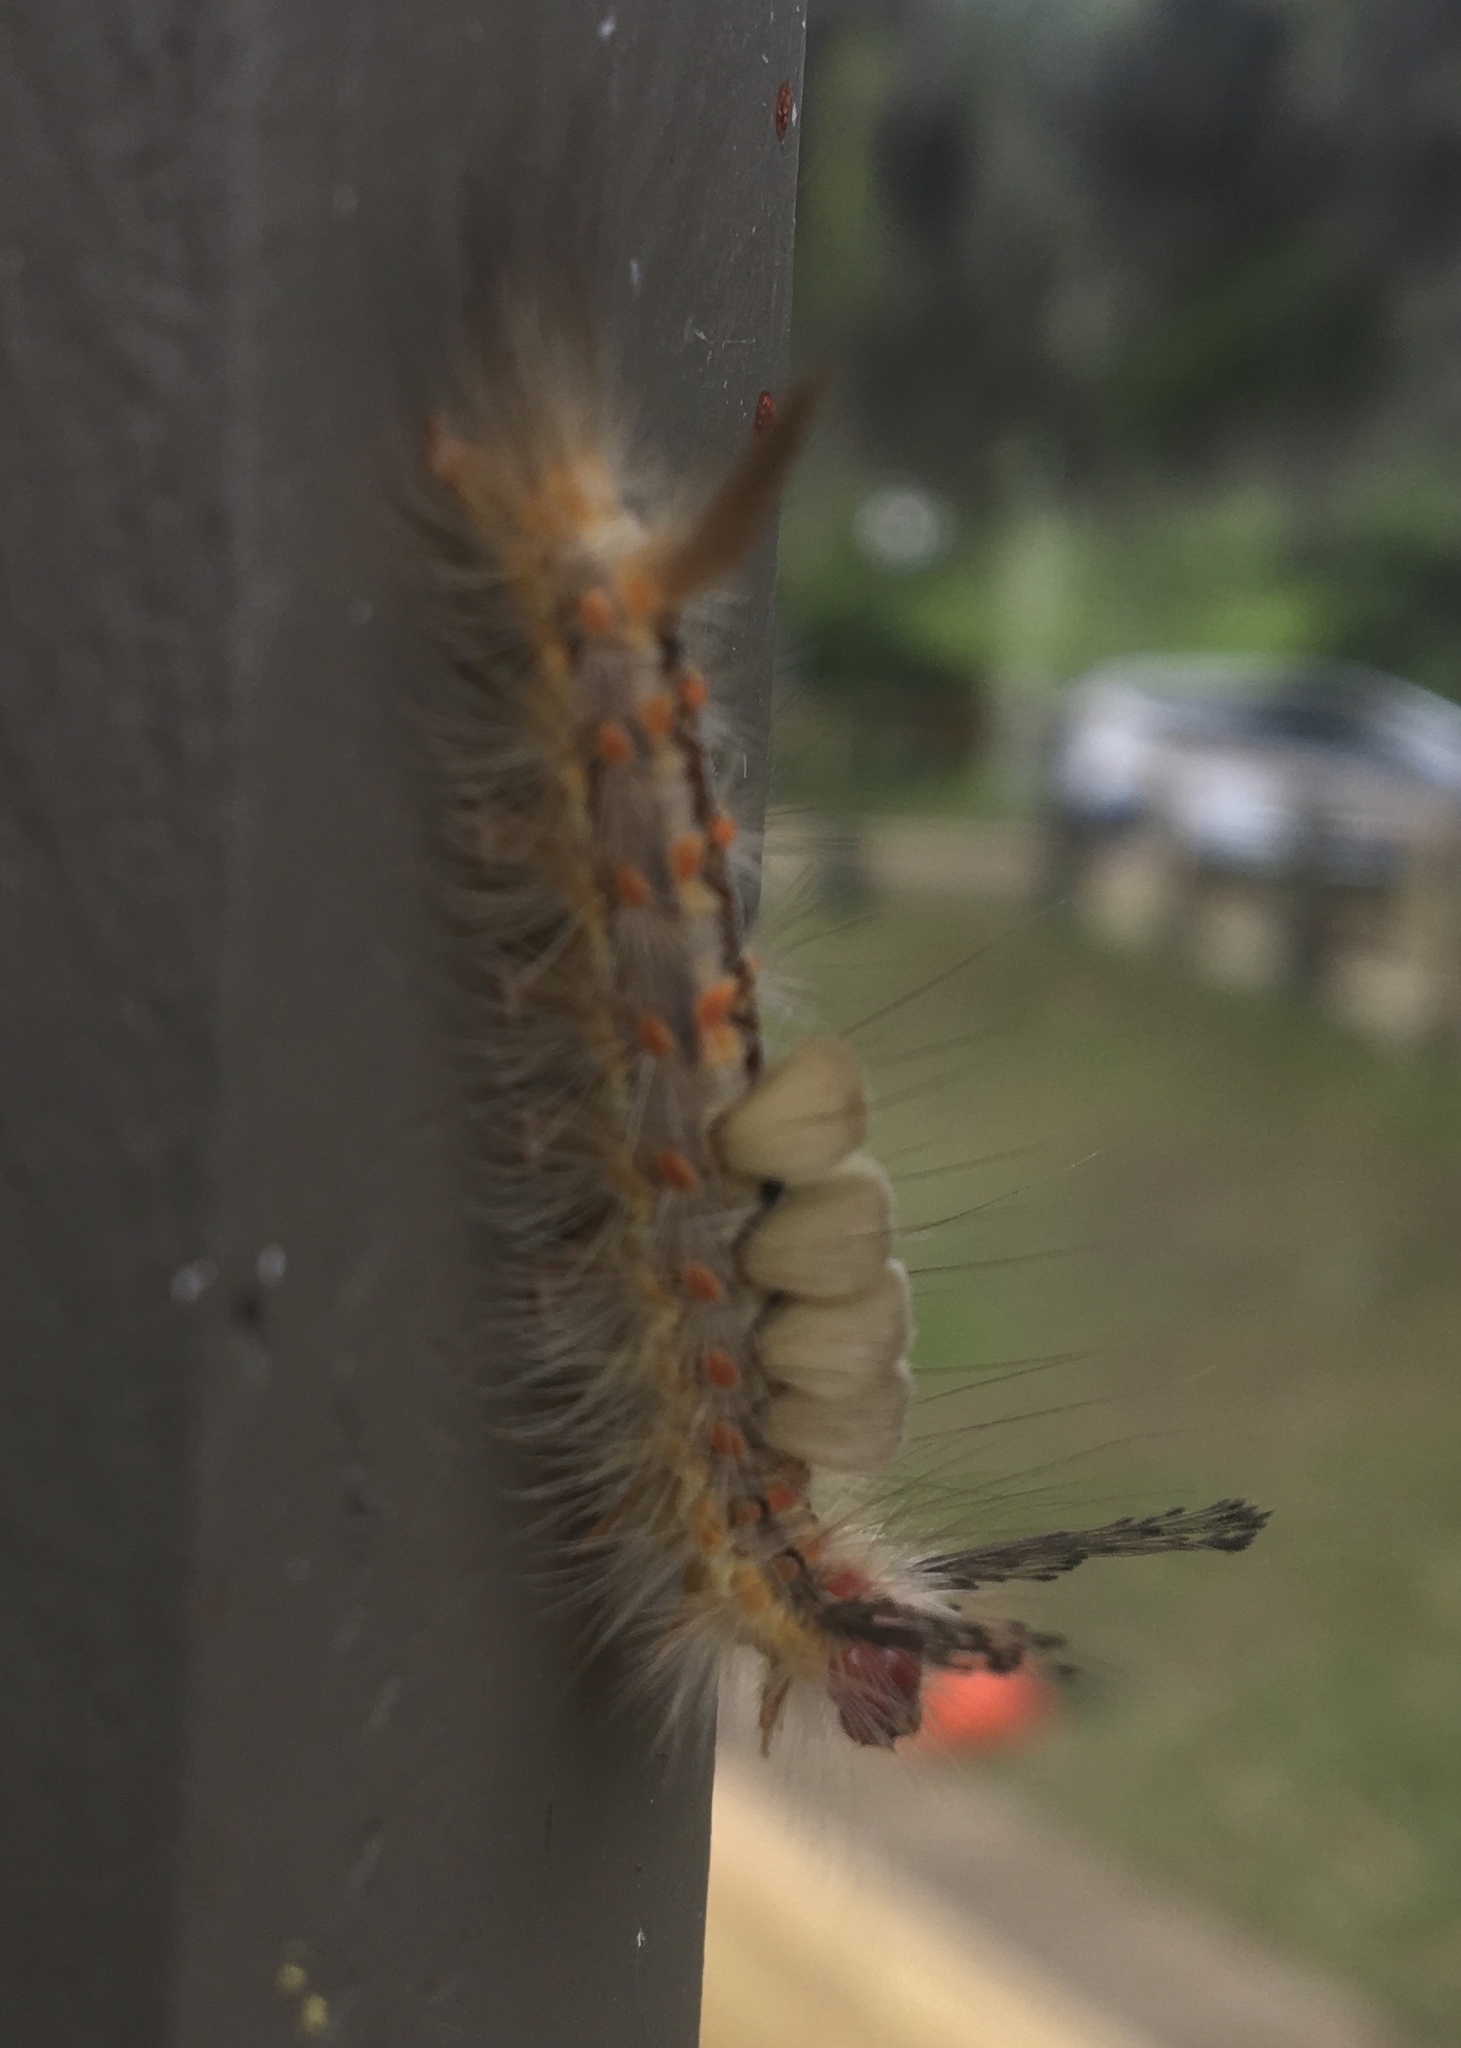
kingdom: Animalia
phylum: Arthropoda
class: Insecta
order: Lepidoptera
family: Erebidae
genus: Orgyia
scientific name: Orgyia detrita
